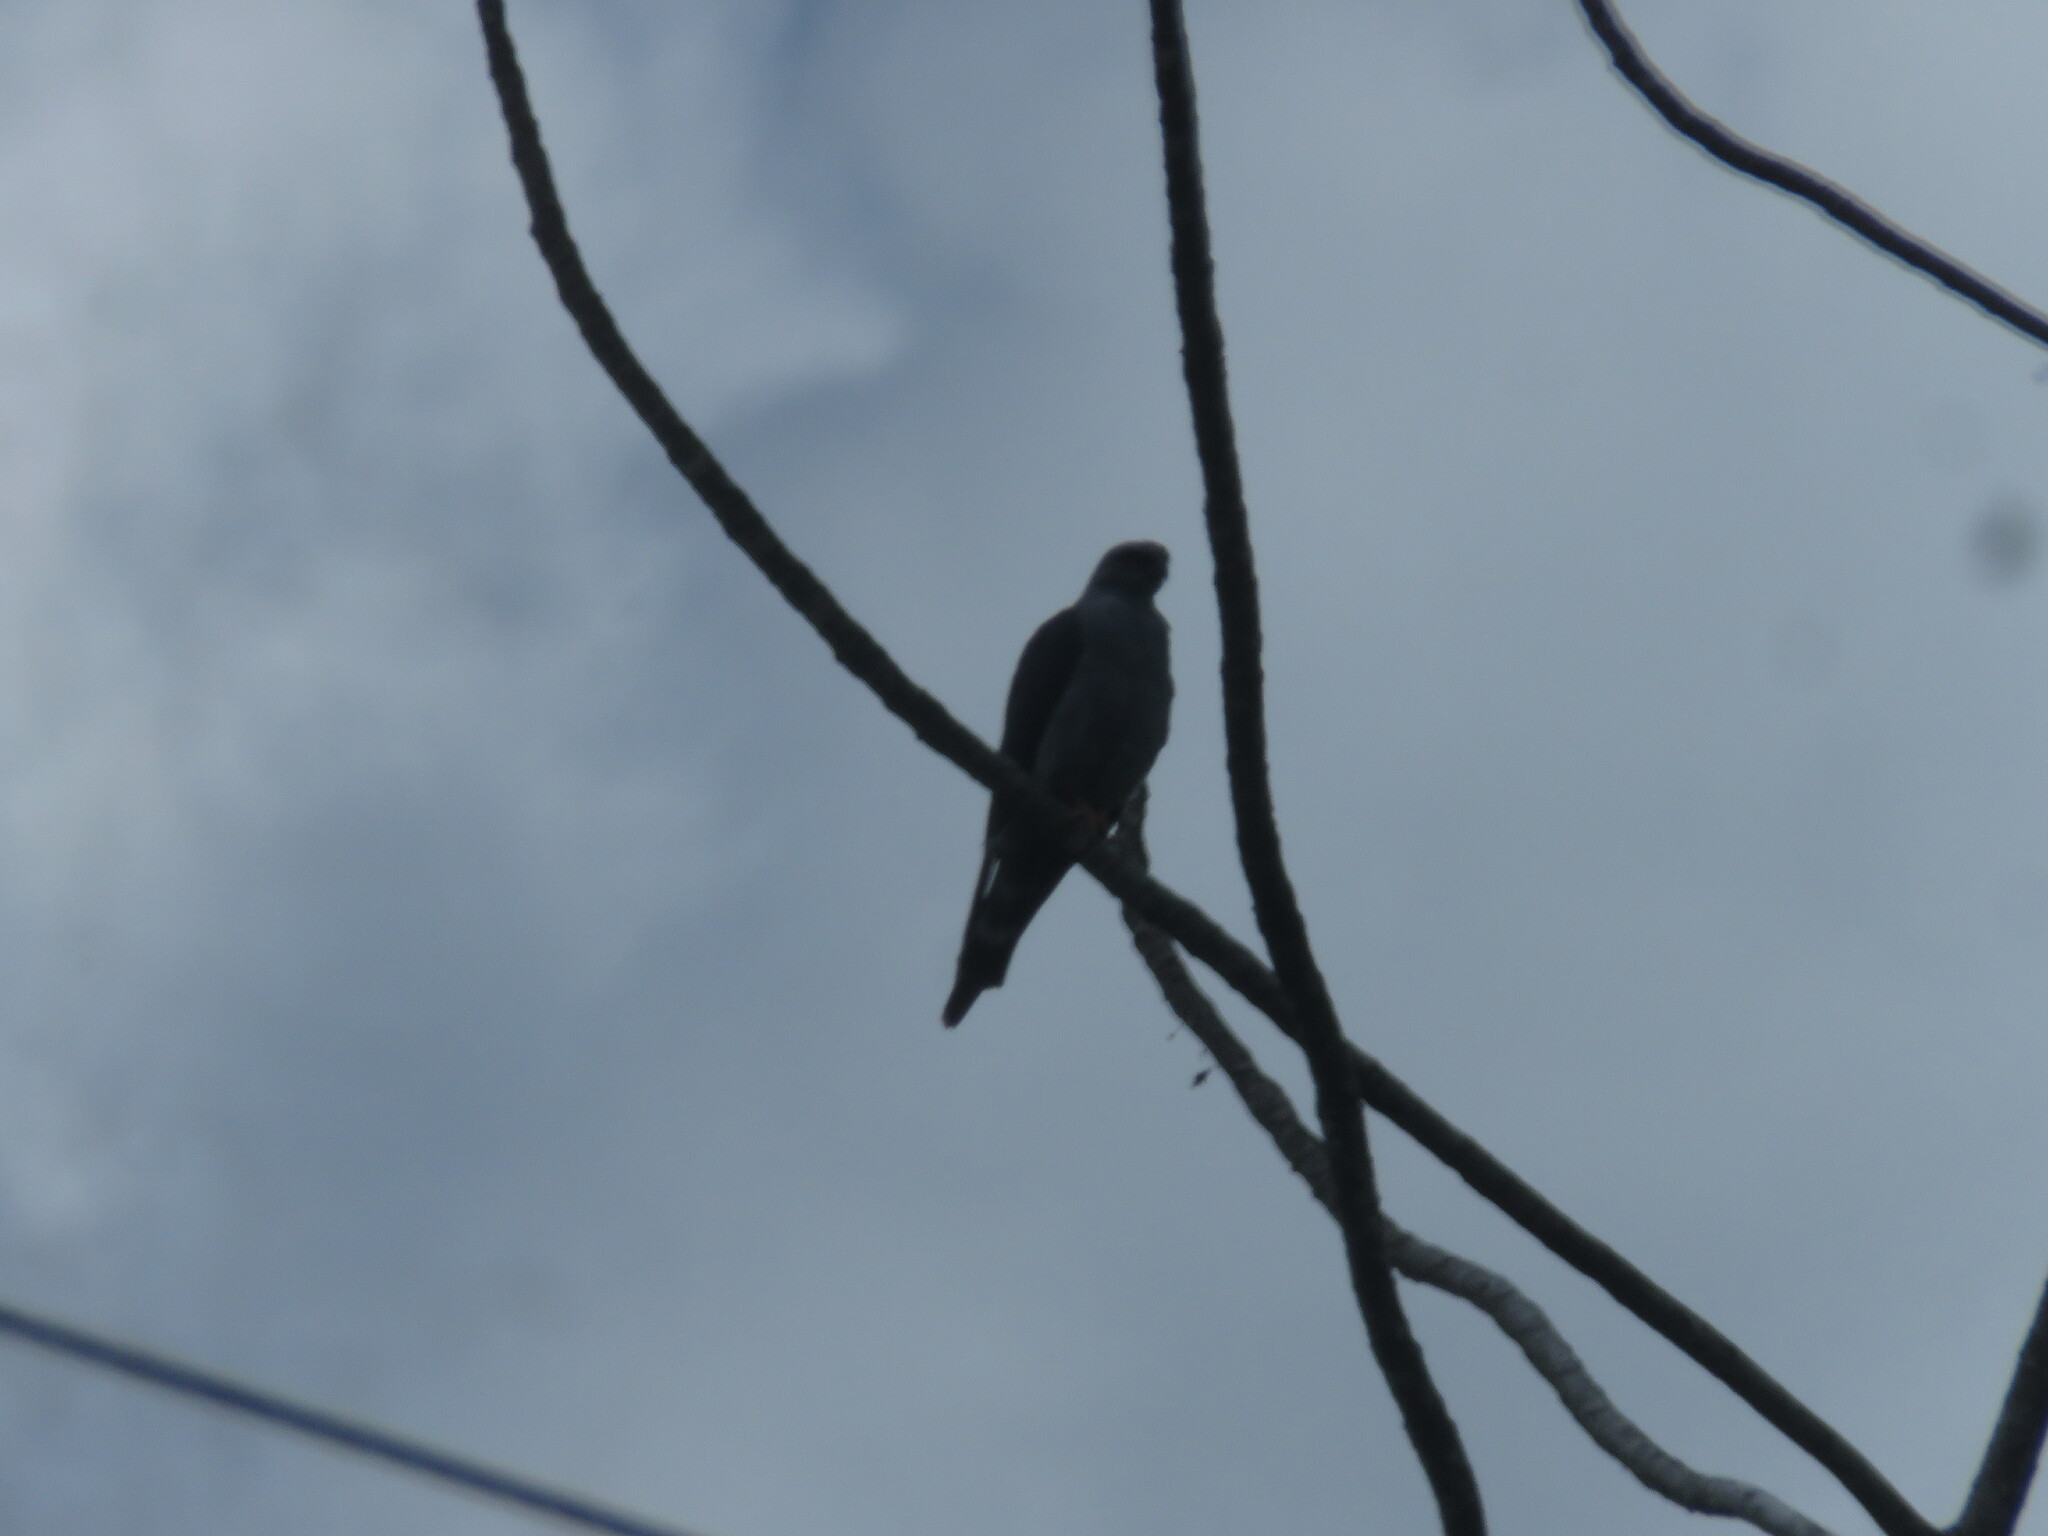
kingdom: Animalia
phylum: Chordata
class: Aves
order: Accipitriformes
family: Accipitridae
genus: Ictinia
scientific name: Ictinia plumbea
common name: Plumbeous kite
